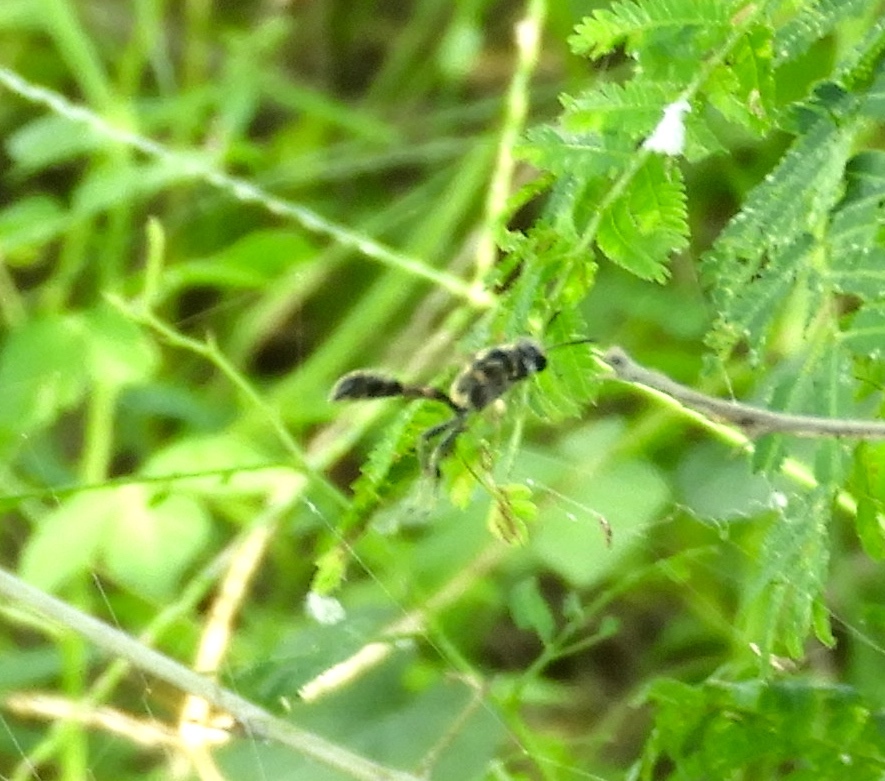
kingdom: Animalia
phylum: Arthropoda
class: Insecta
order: Hymenoptera
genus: Trypargilum
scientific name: Trypargilum
